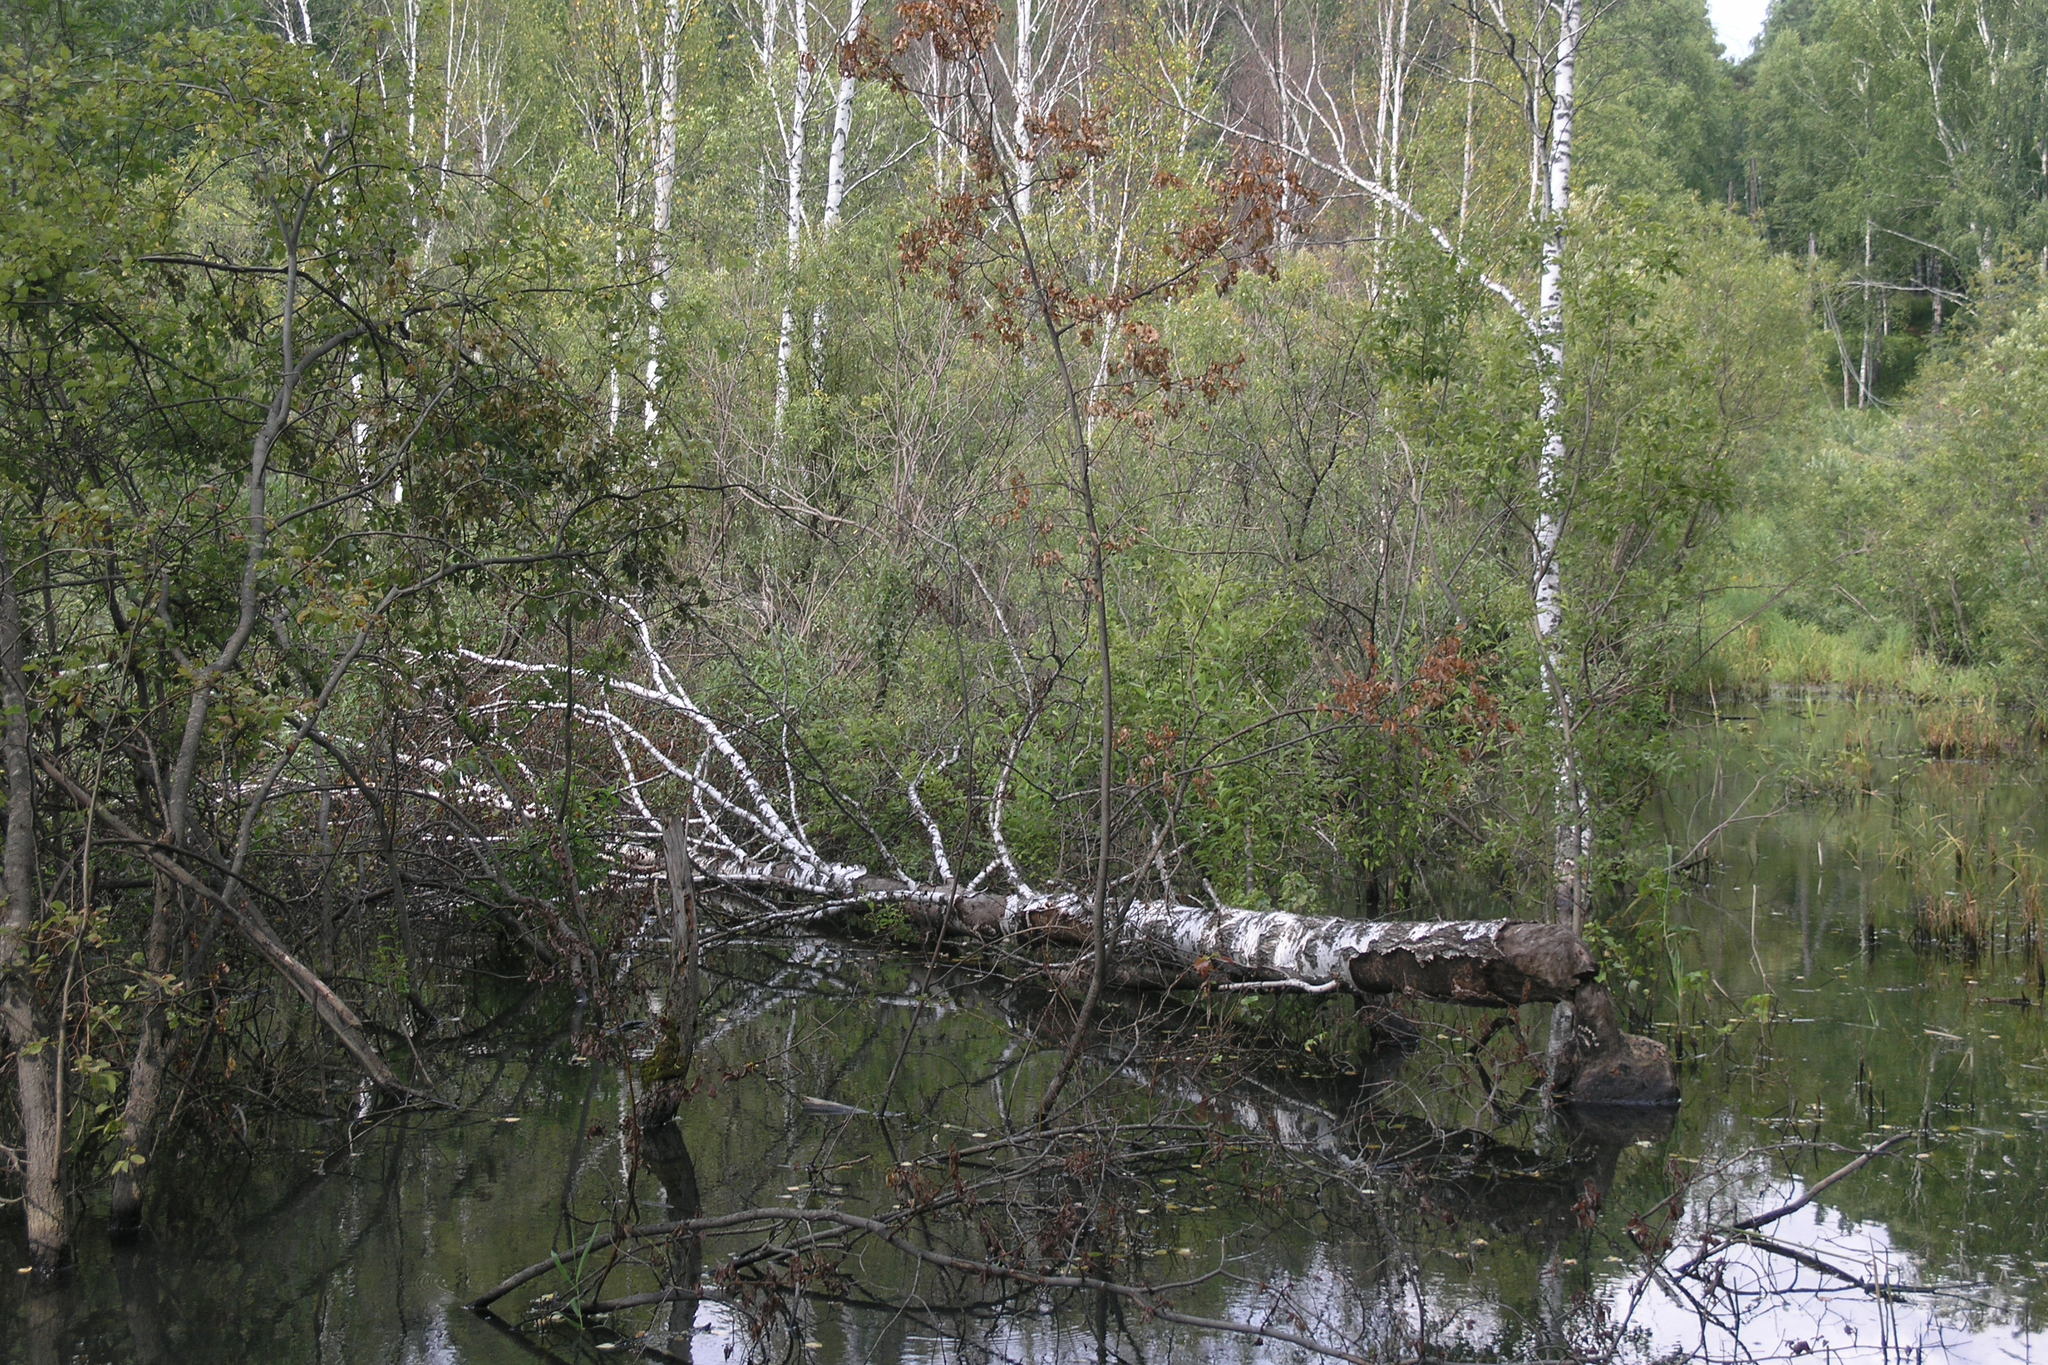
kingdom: Animalia
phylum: Chordata
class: Mammalia
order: Rodentia
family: Castoridae
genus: Castor
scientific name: Castor fiber
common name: Eurasian beaver
